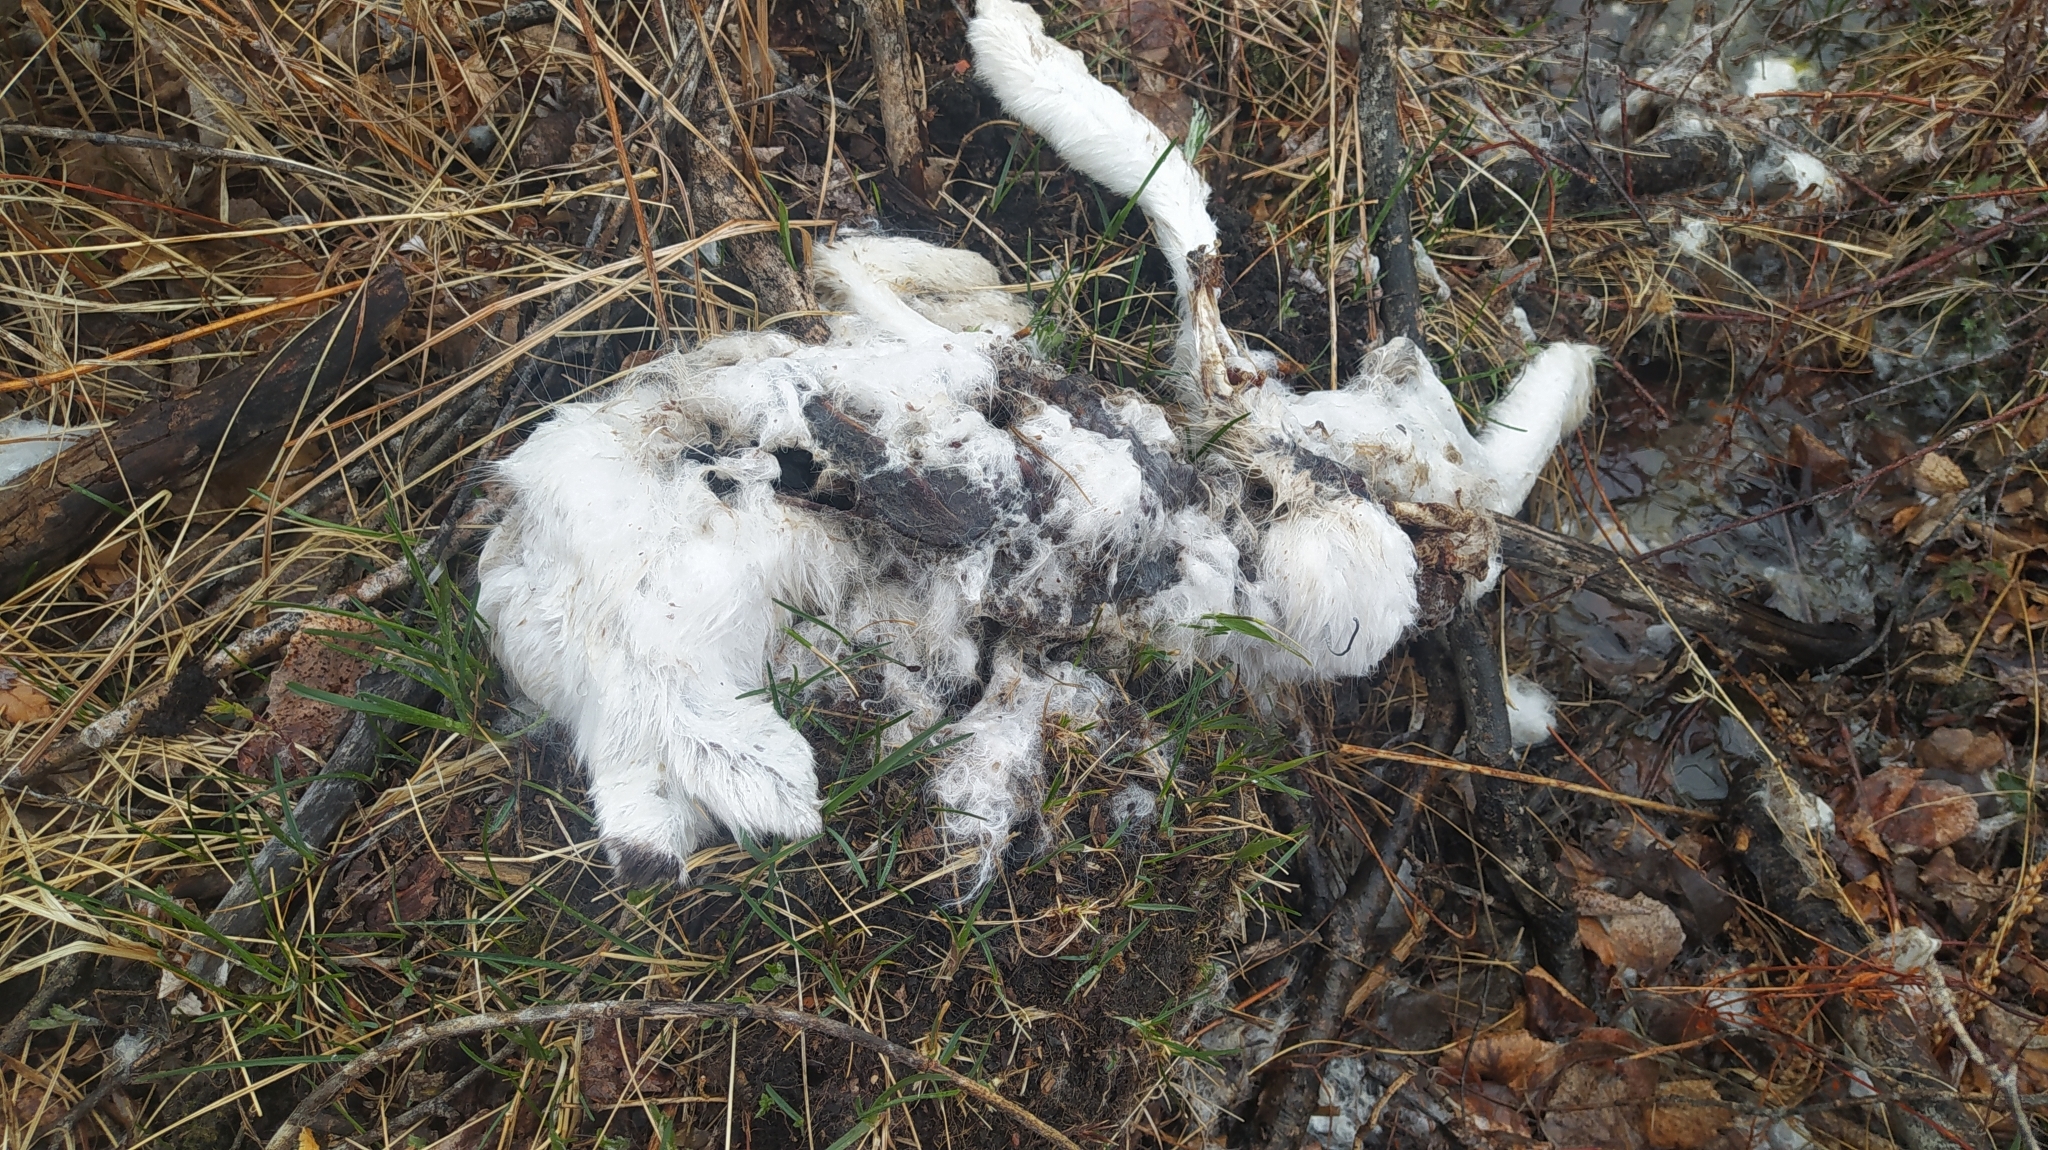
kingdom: Animalia
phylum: Chordata
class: Mammalia
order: Lagomorpha
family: Leporidae
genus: Lepus
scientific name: Lepus timidus
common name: Mountain hare
